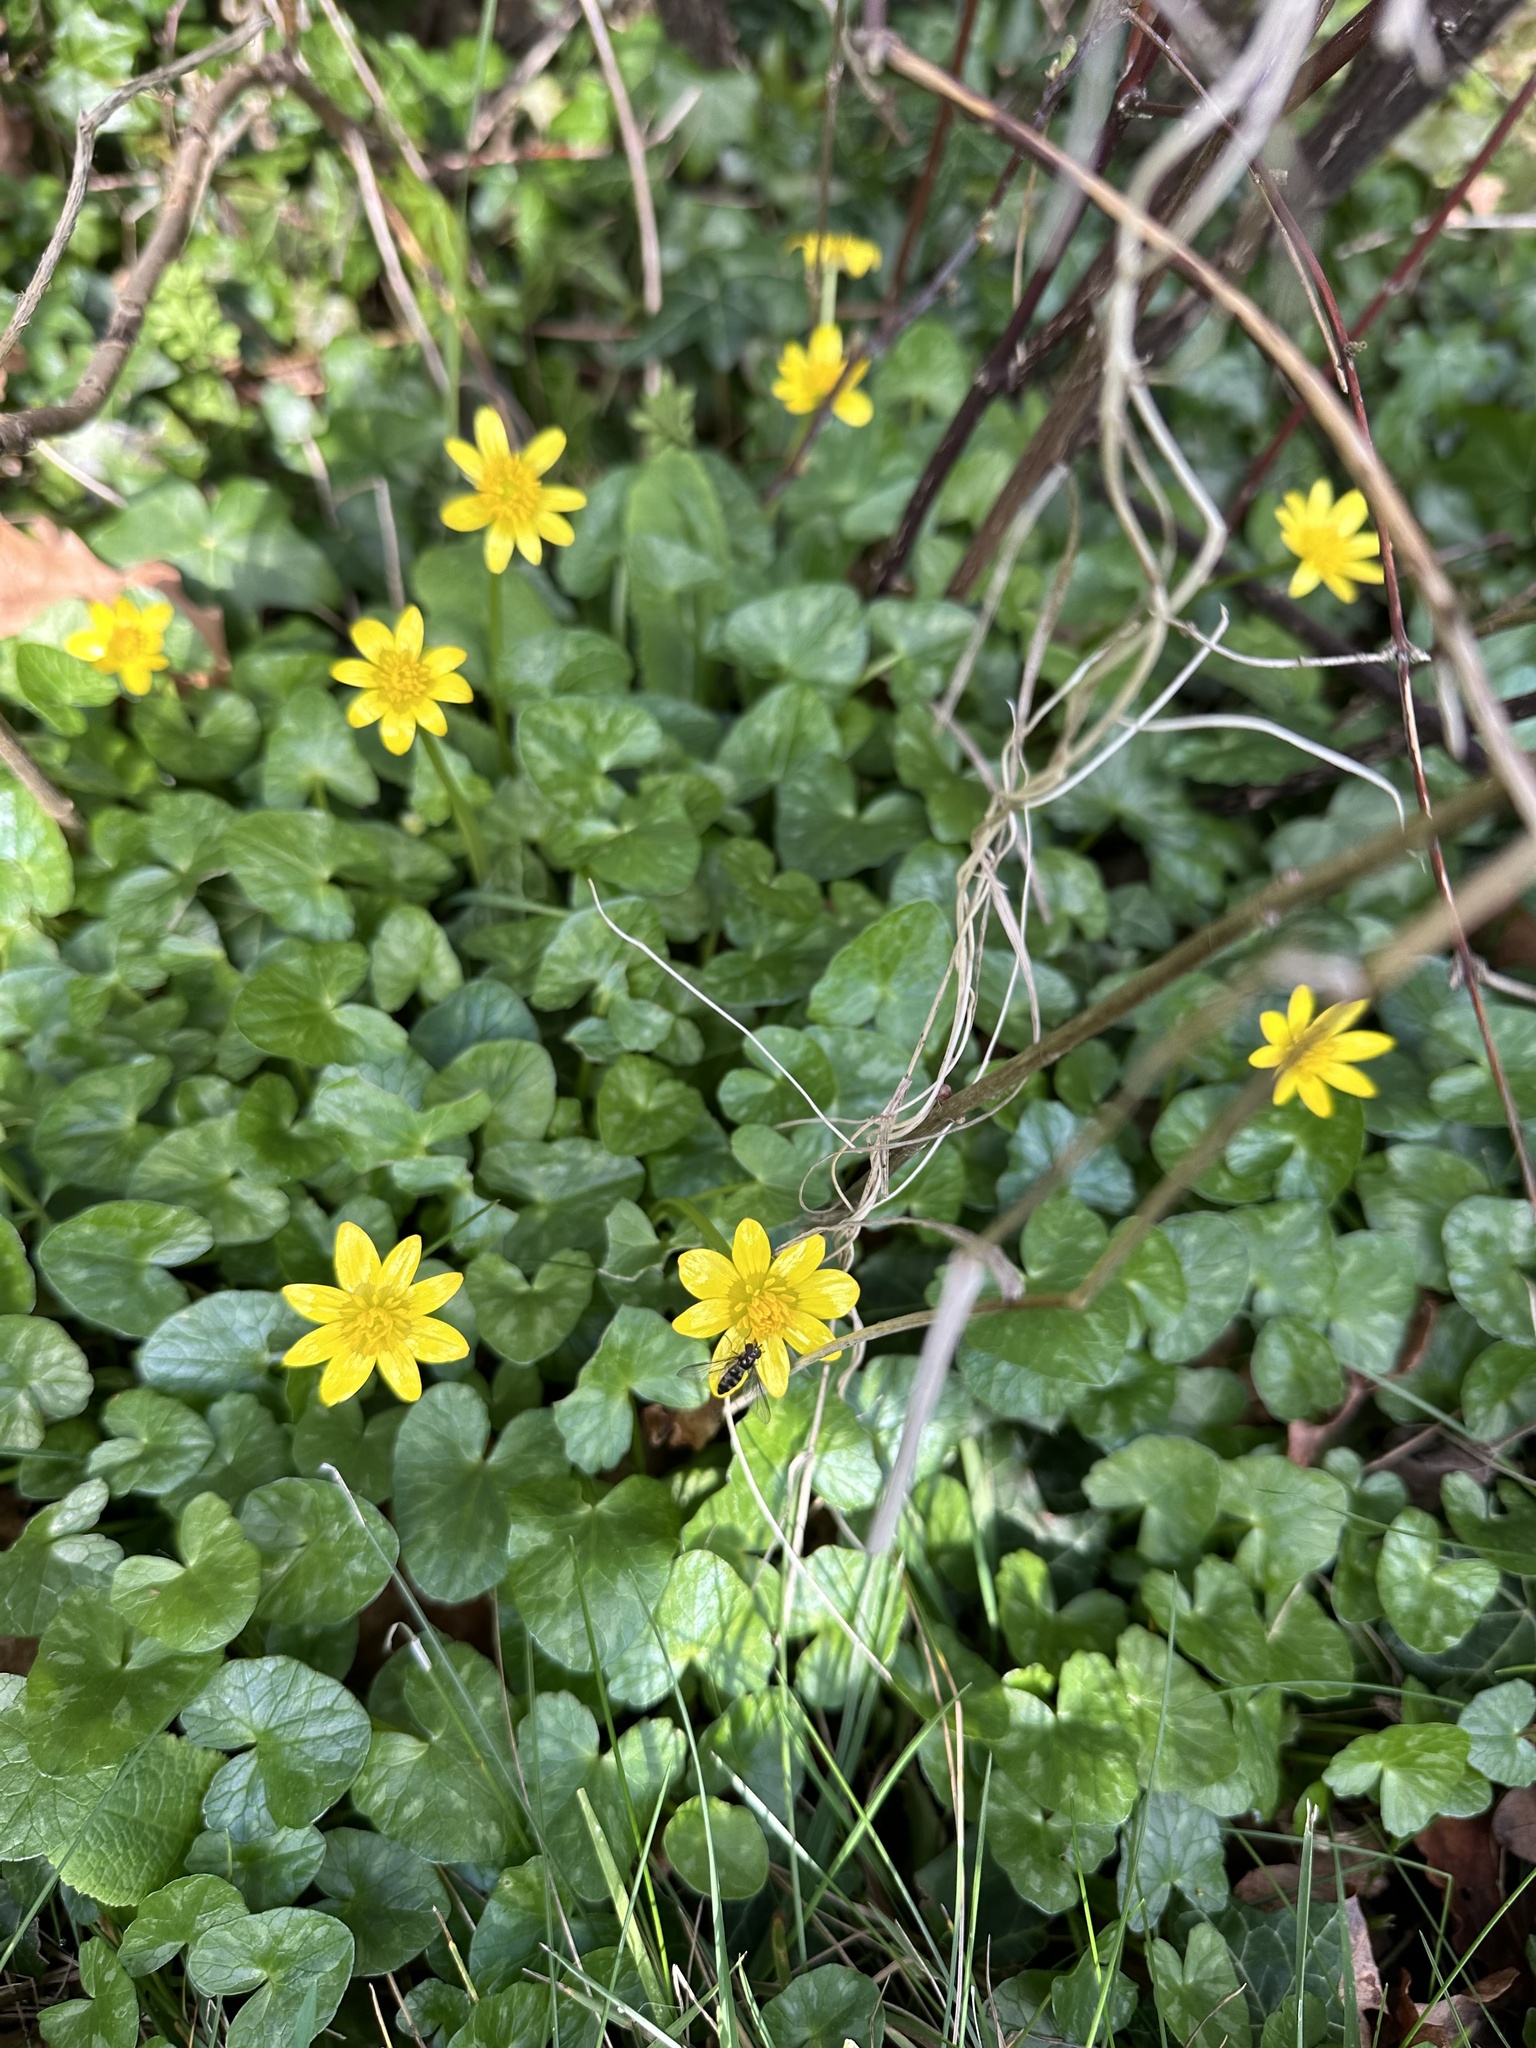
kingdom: Plantae
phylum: Tracheophyta
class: Magnoliopsida
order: Ranunculales
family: Ranunculaceae
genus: Ficaria
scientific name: Ficaria verna
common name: Lesser celandine
